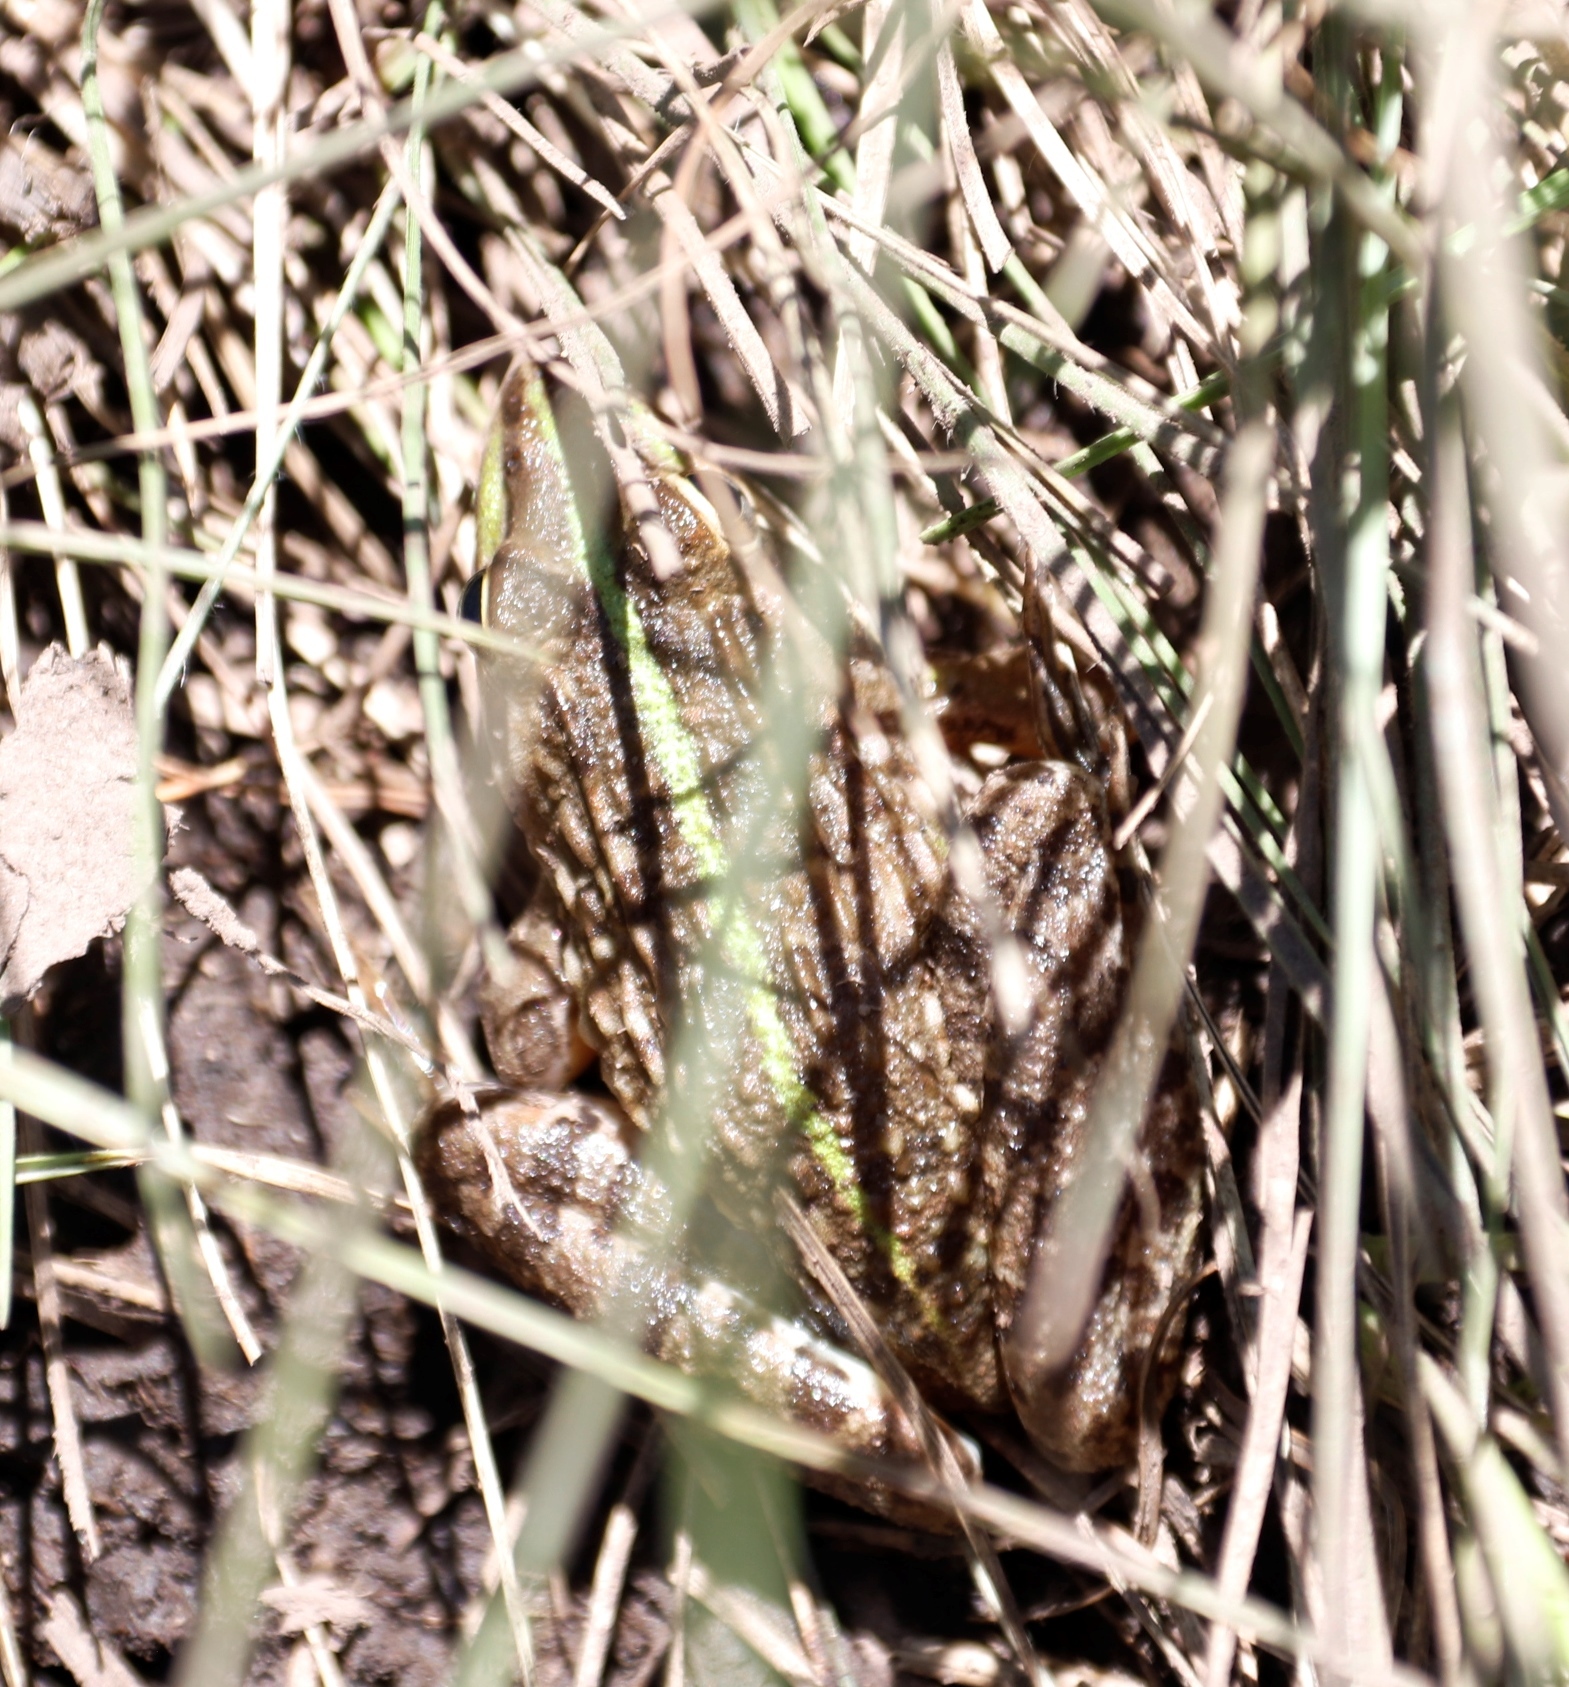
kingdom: Animalia
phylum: Chordata
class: Amphibia
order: Anura
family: Pyxicephalidae
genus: Amietia
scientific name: Amietia delalandii
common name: Delalande's river frog
